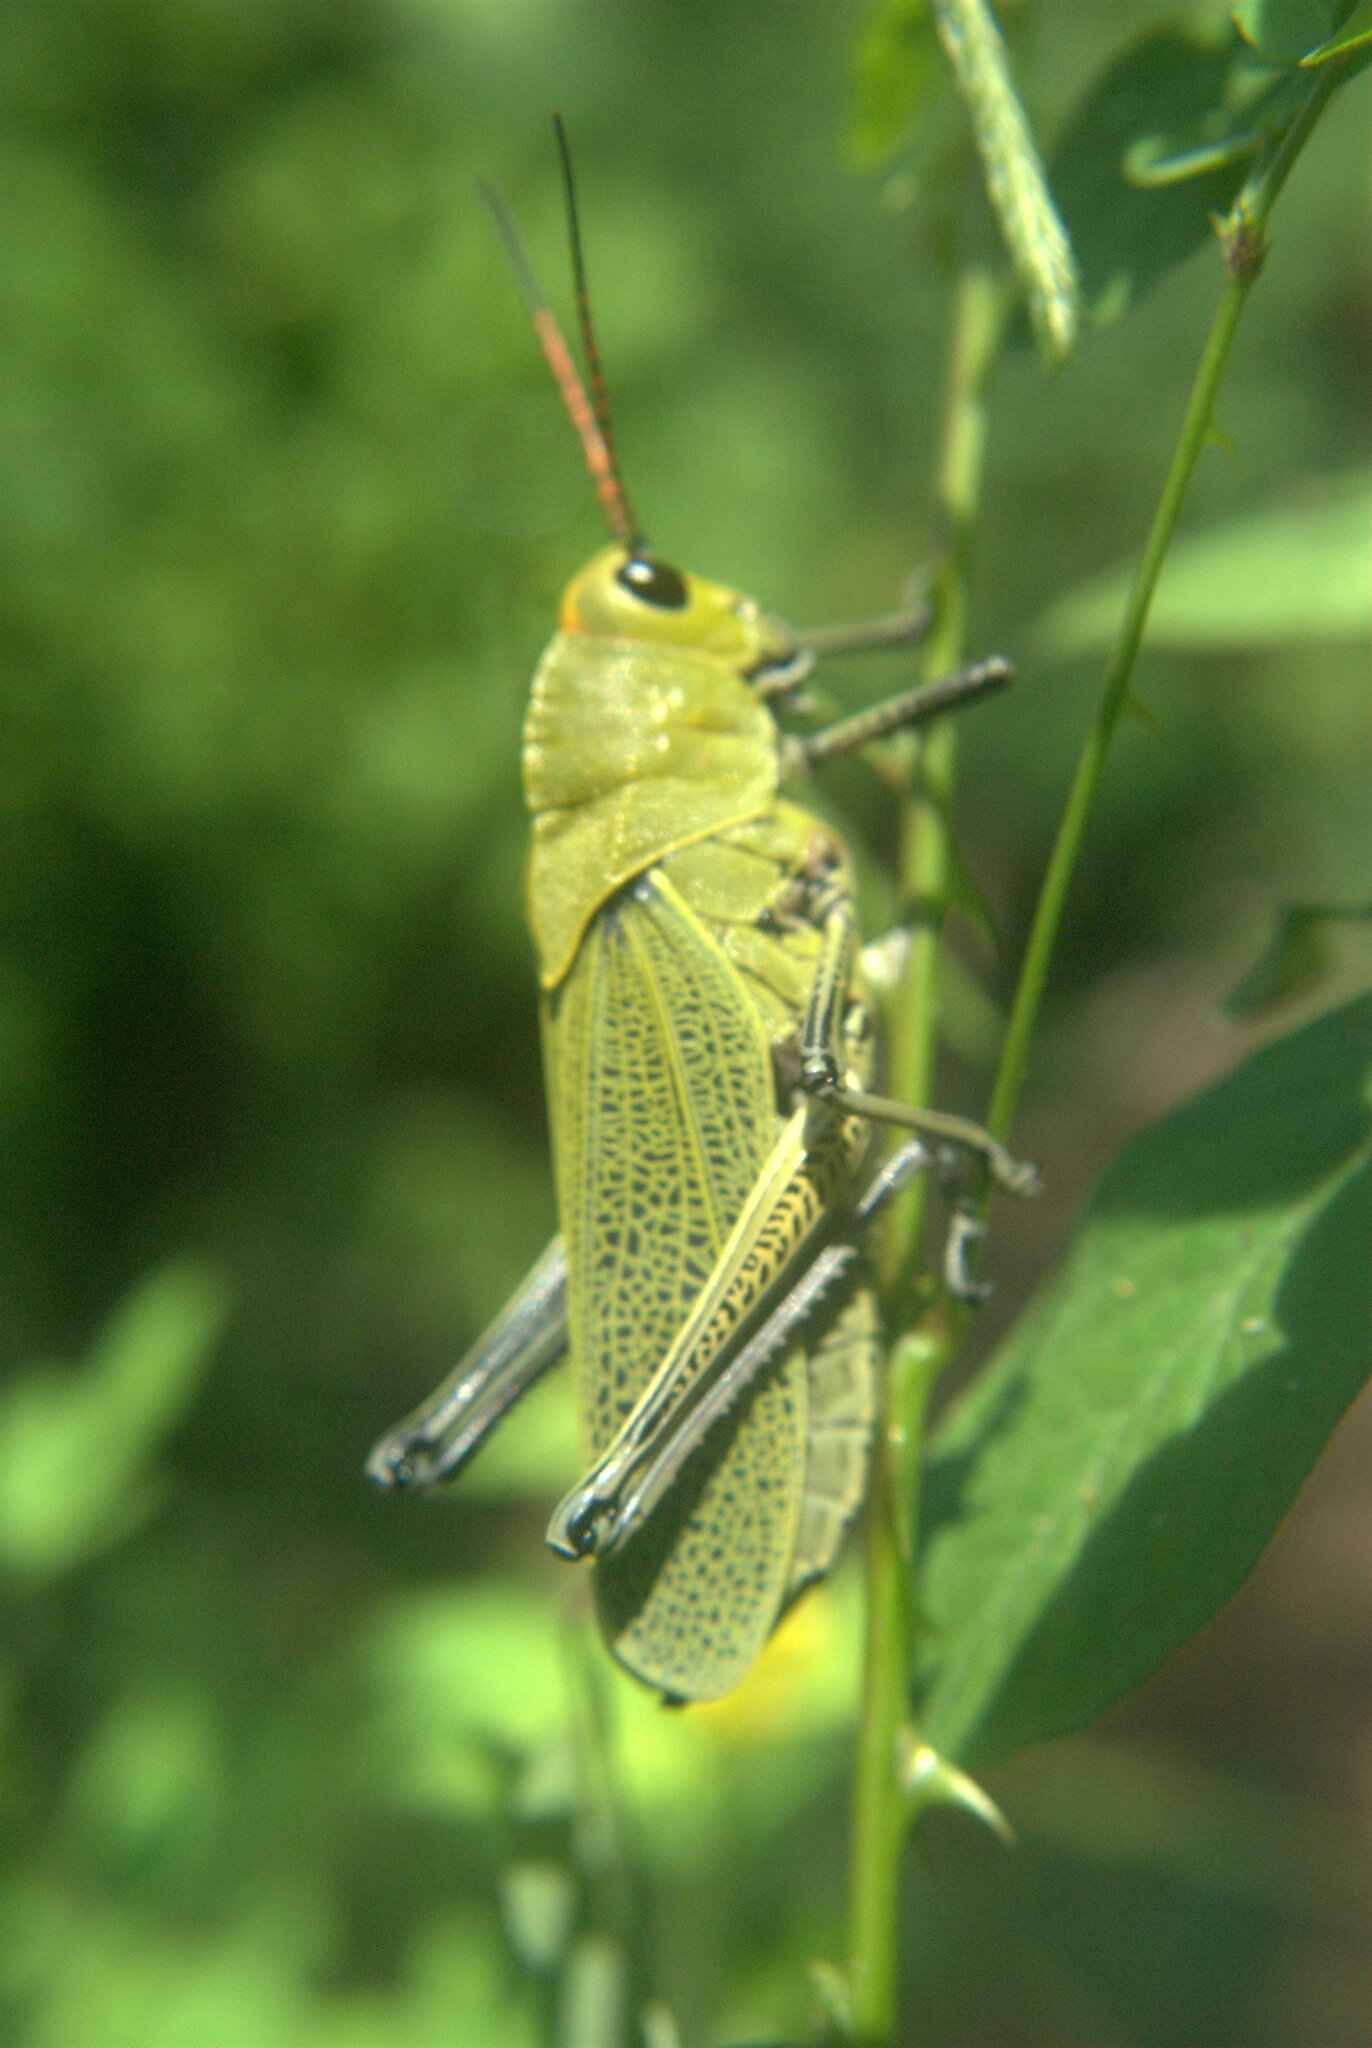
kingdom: Animalia
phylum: Arthropoda
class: Insecta
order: Orthoptera
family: Romaleidae
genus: Romalea
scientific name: Romalea
